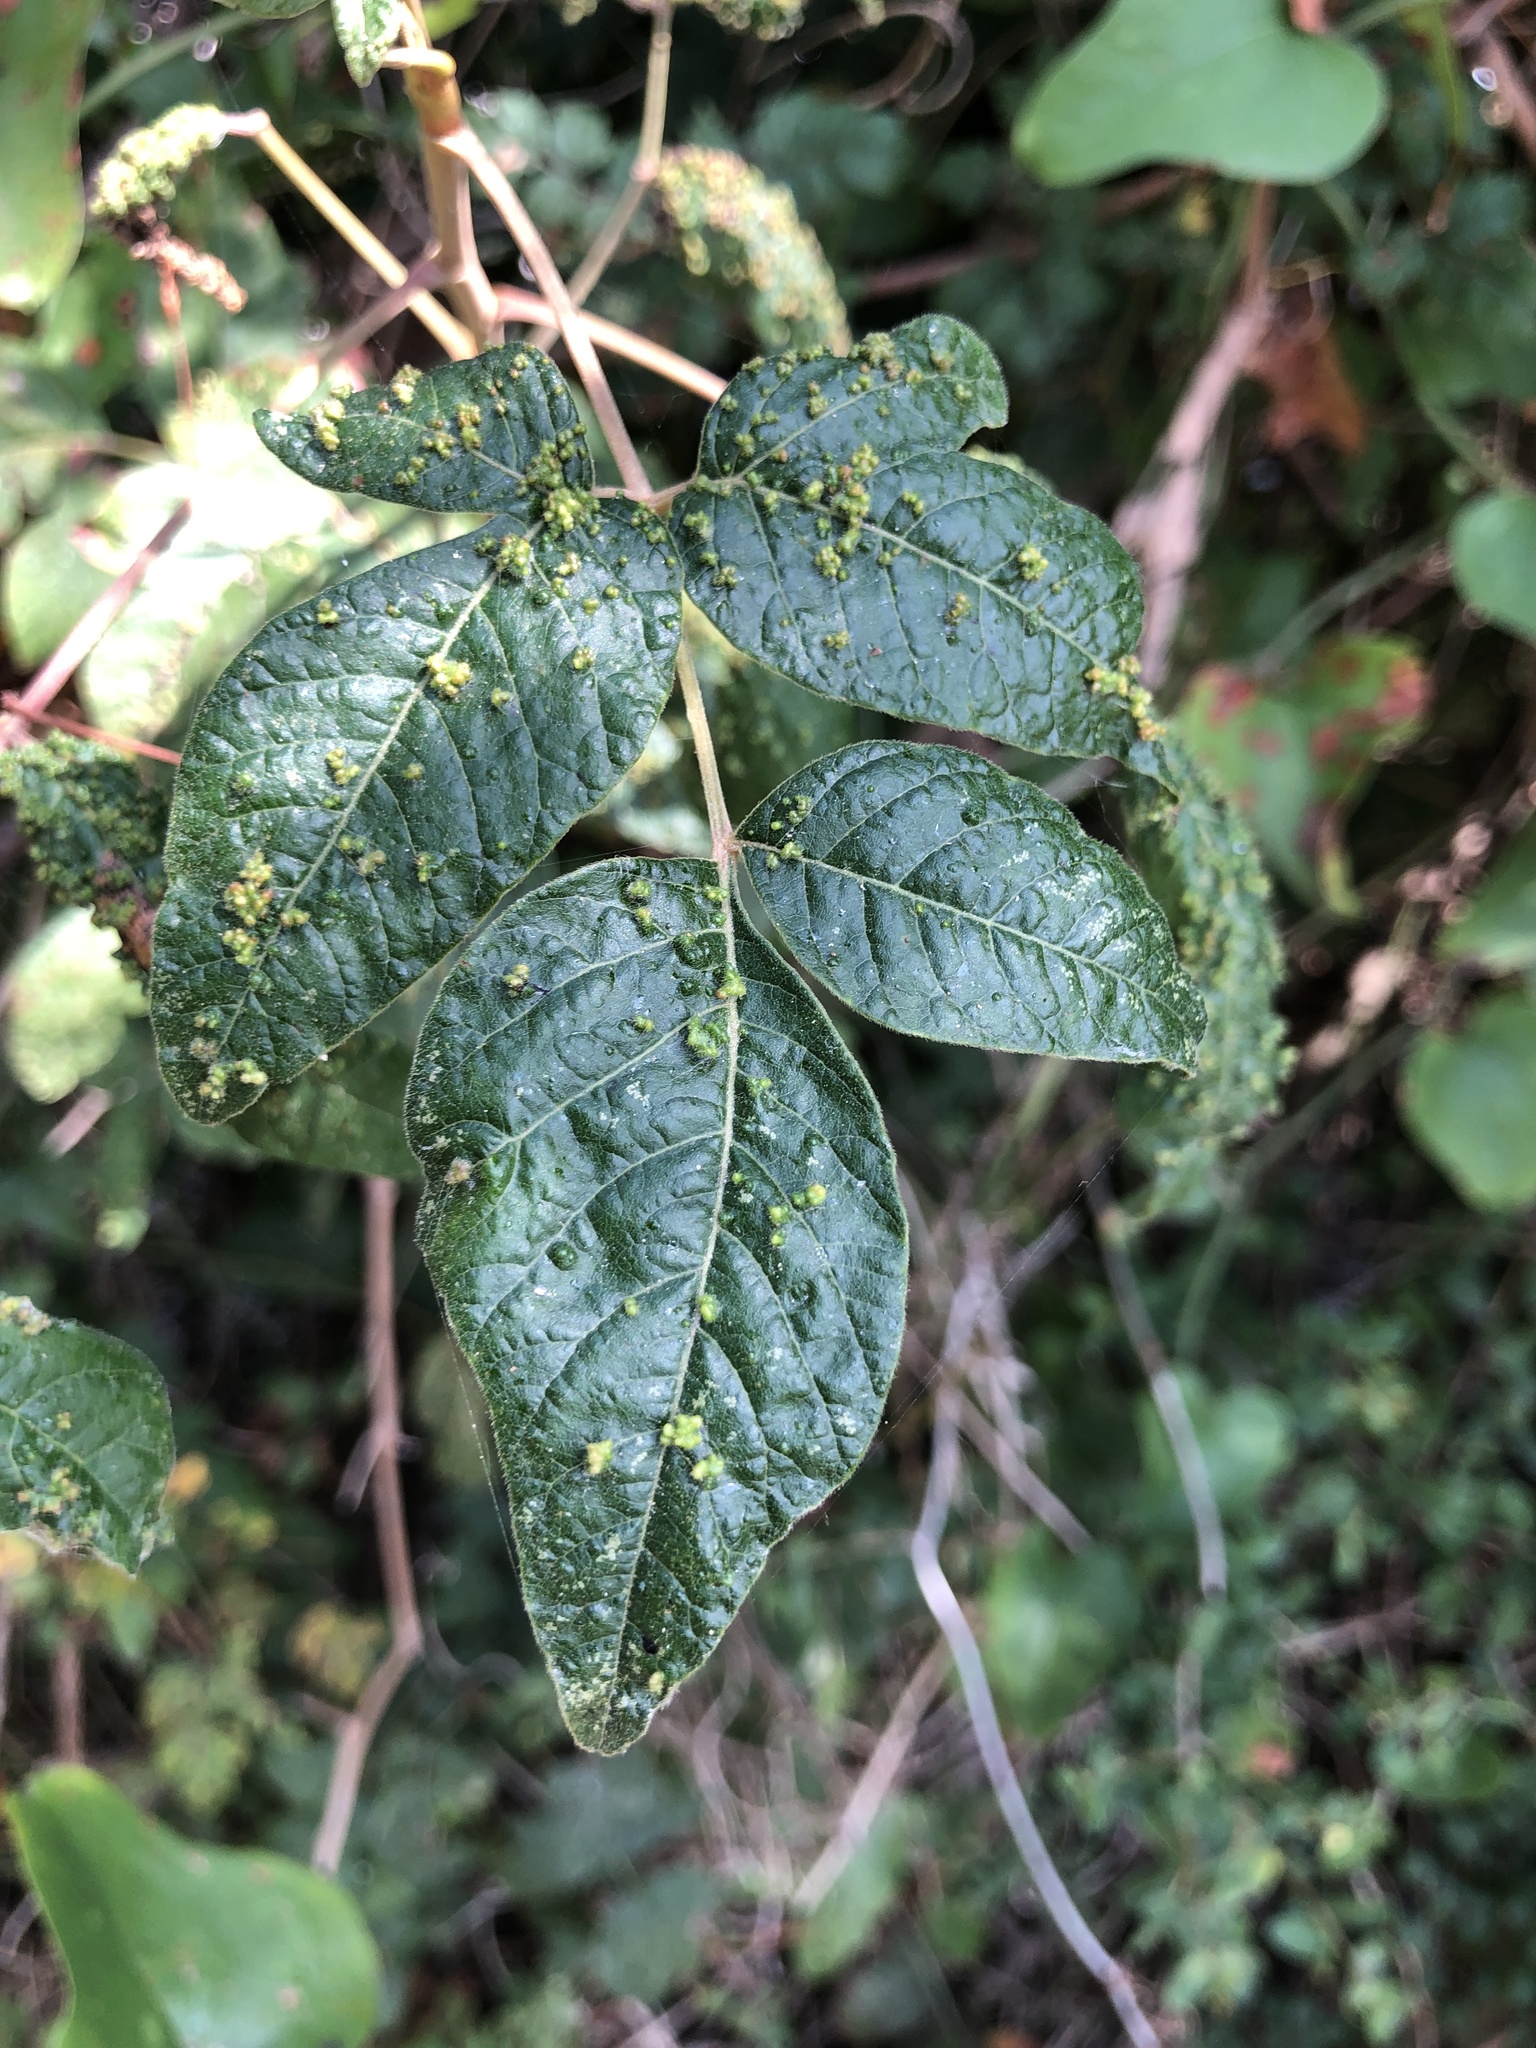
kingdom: Animalia
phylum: Arthropoda
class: Arachnida
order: Trombidiformes
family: Eriophyidae
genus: Aculops
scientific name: Aculops
